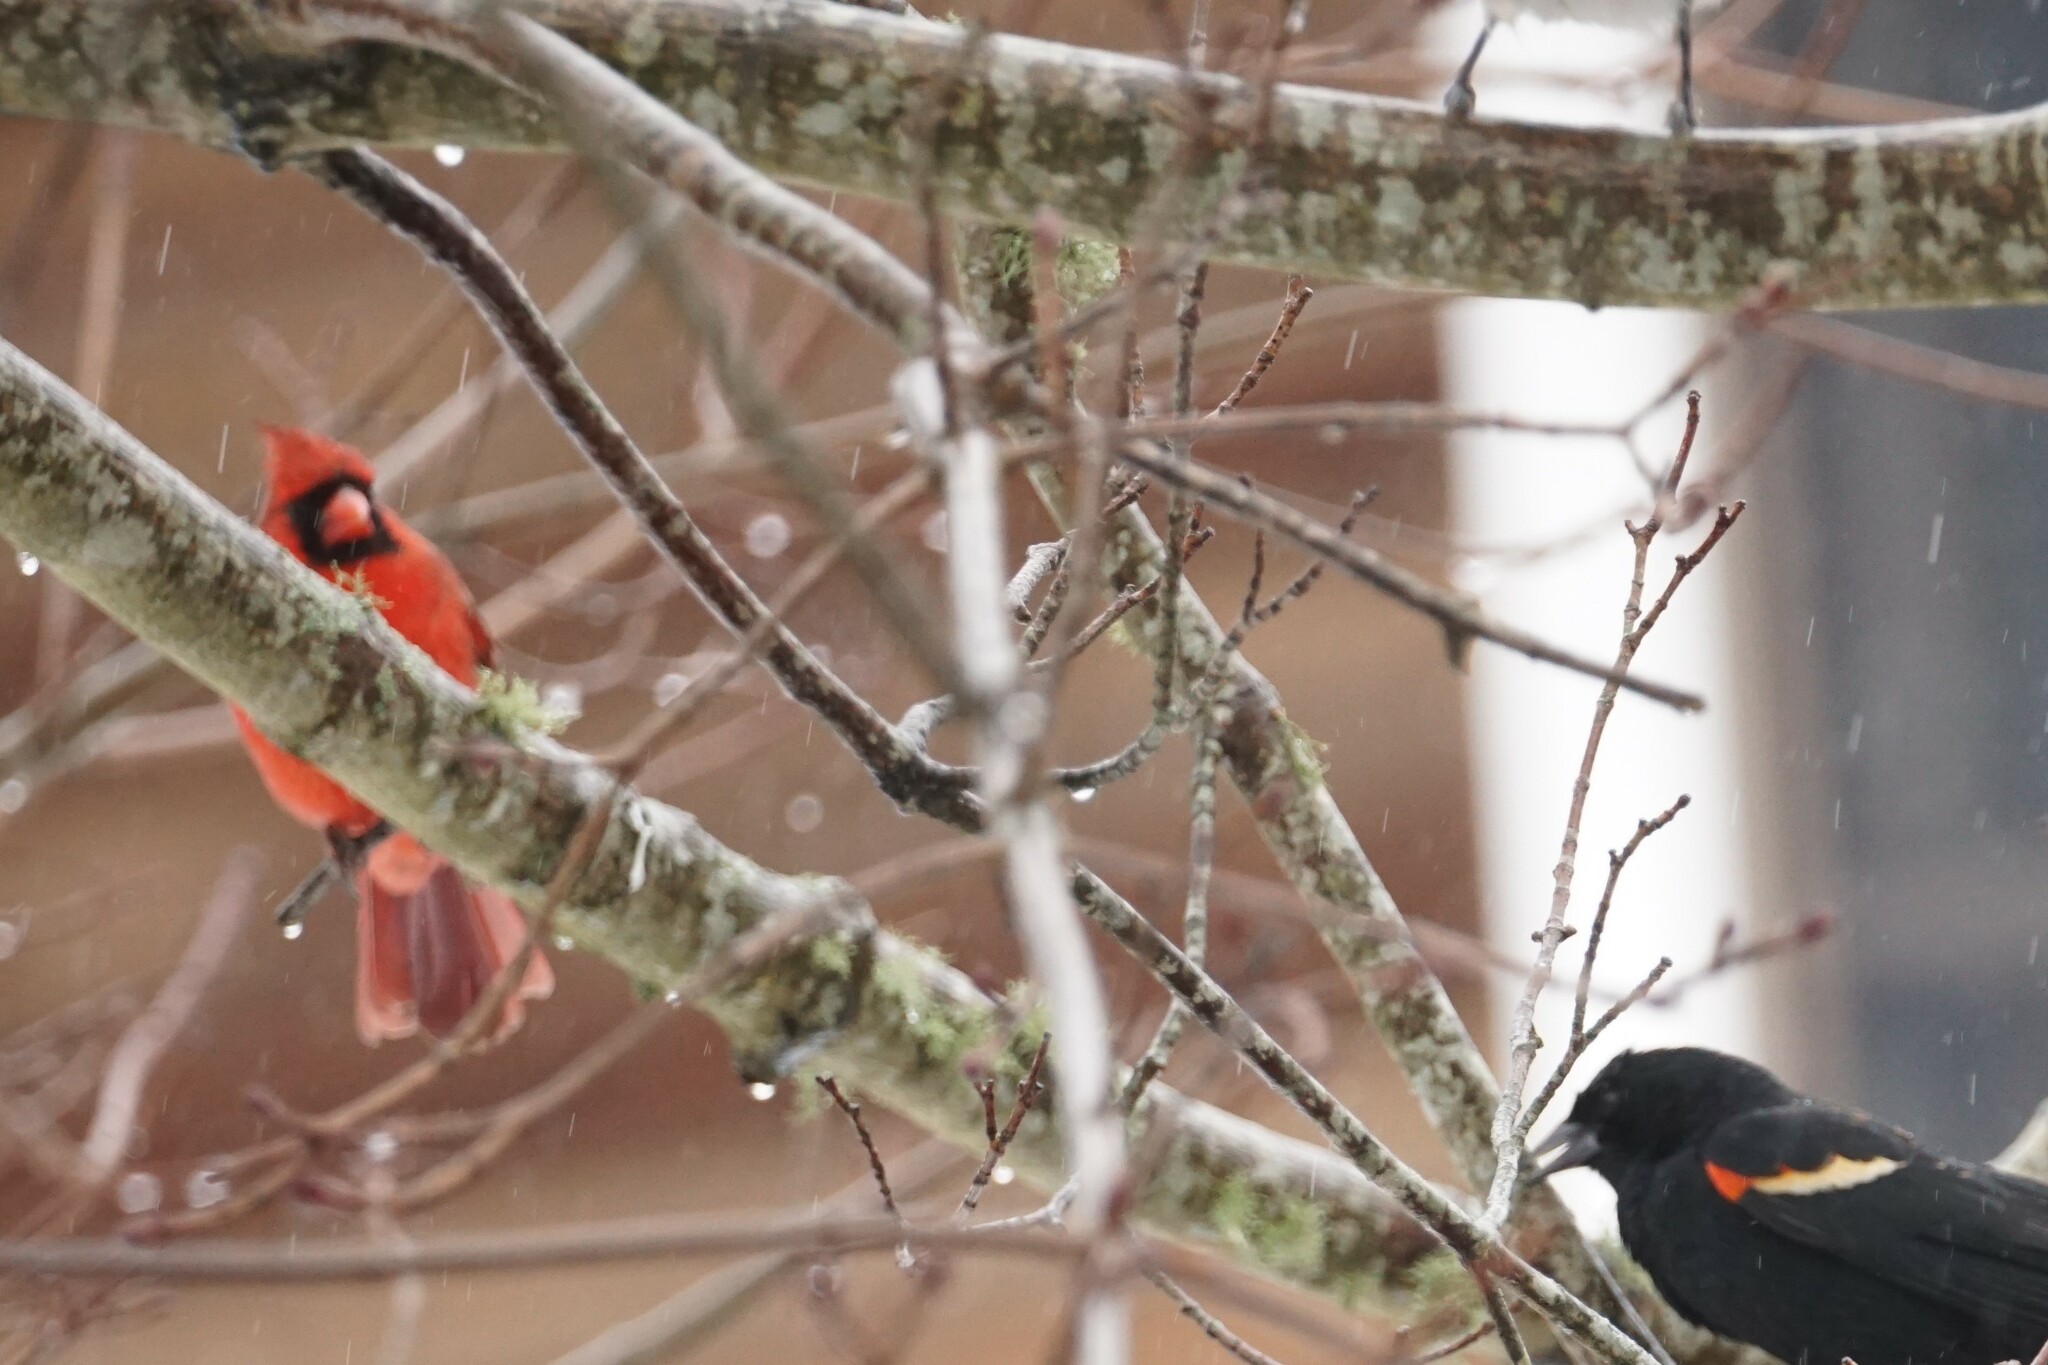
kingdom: Animalia
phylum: Chordata
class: Aves
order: Passeriformes
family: Cardinalidae
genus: Cardinalis
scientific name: Cardinalis cardinalis
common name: Northern cardinal
